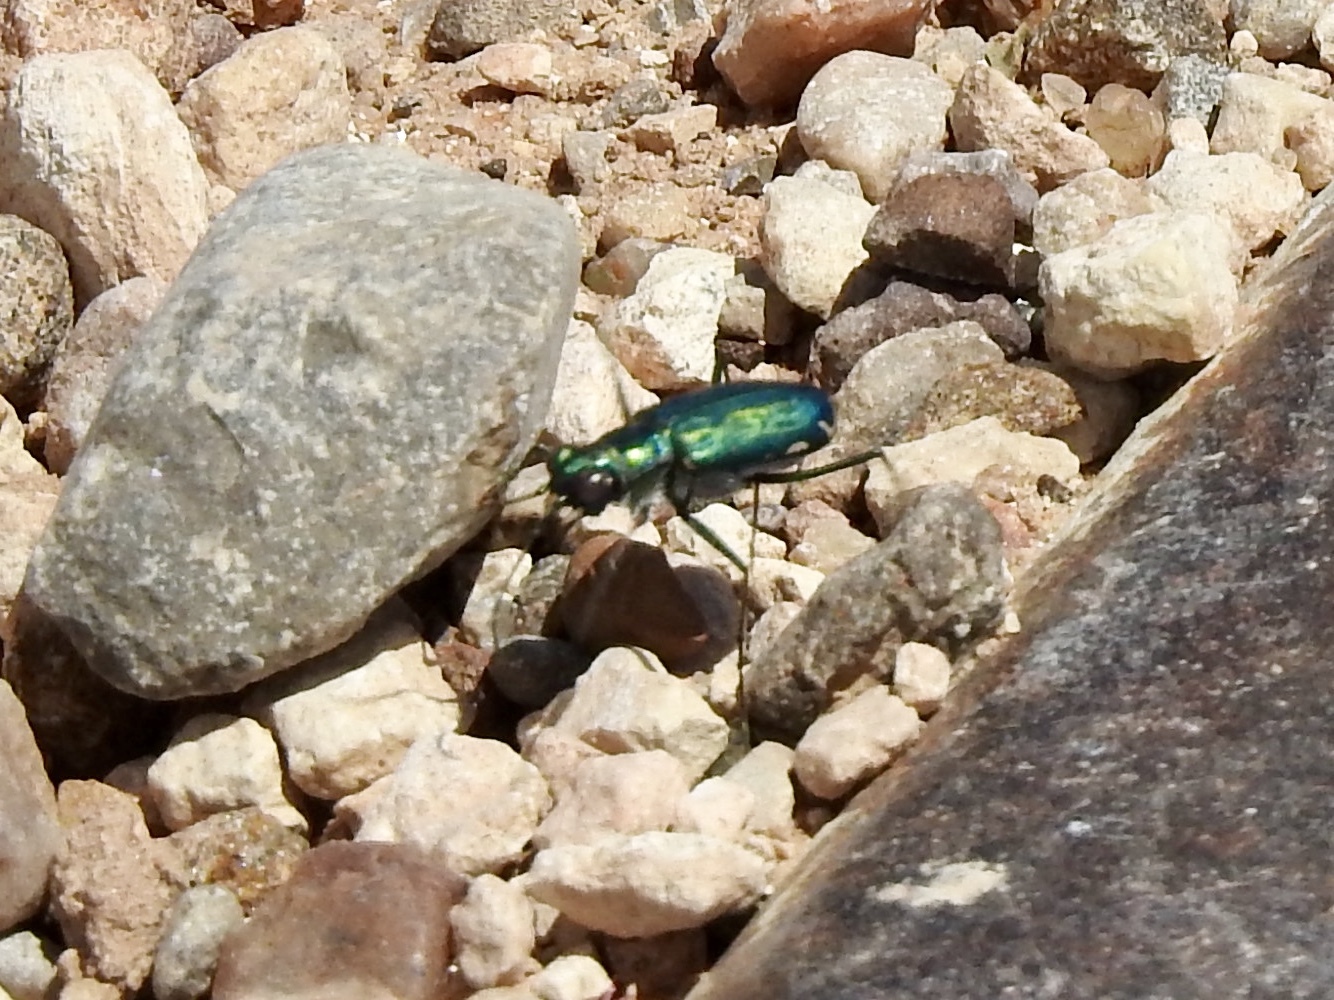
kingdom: Animalia
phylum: Arthropoda
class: Insecta
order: Coleoptera
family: Carabidae
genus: Cicindela
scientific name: Cicindela punctulata
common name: Punctured tiger beetle
